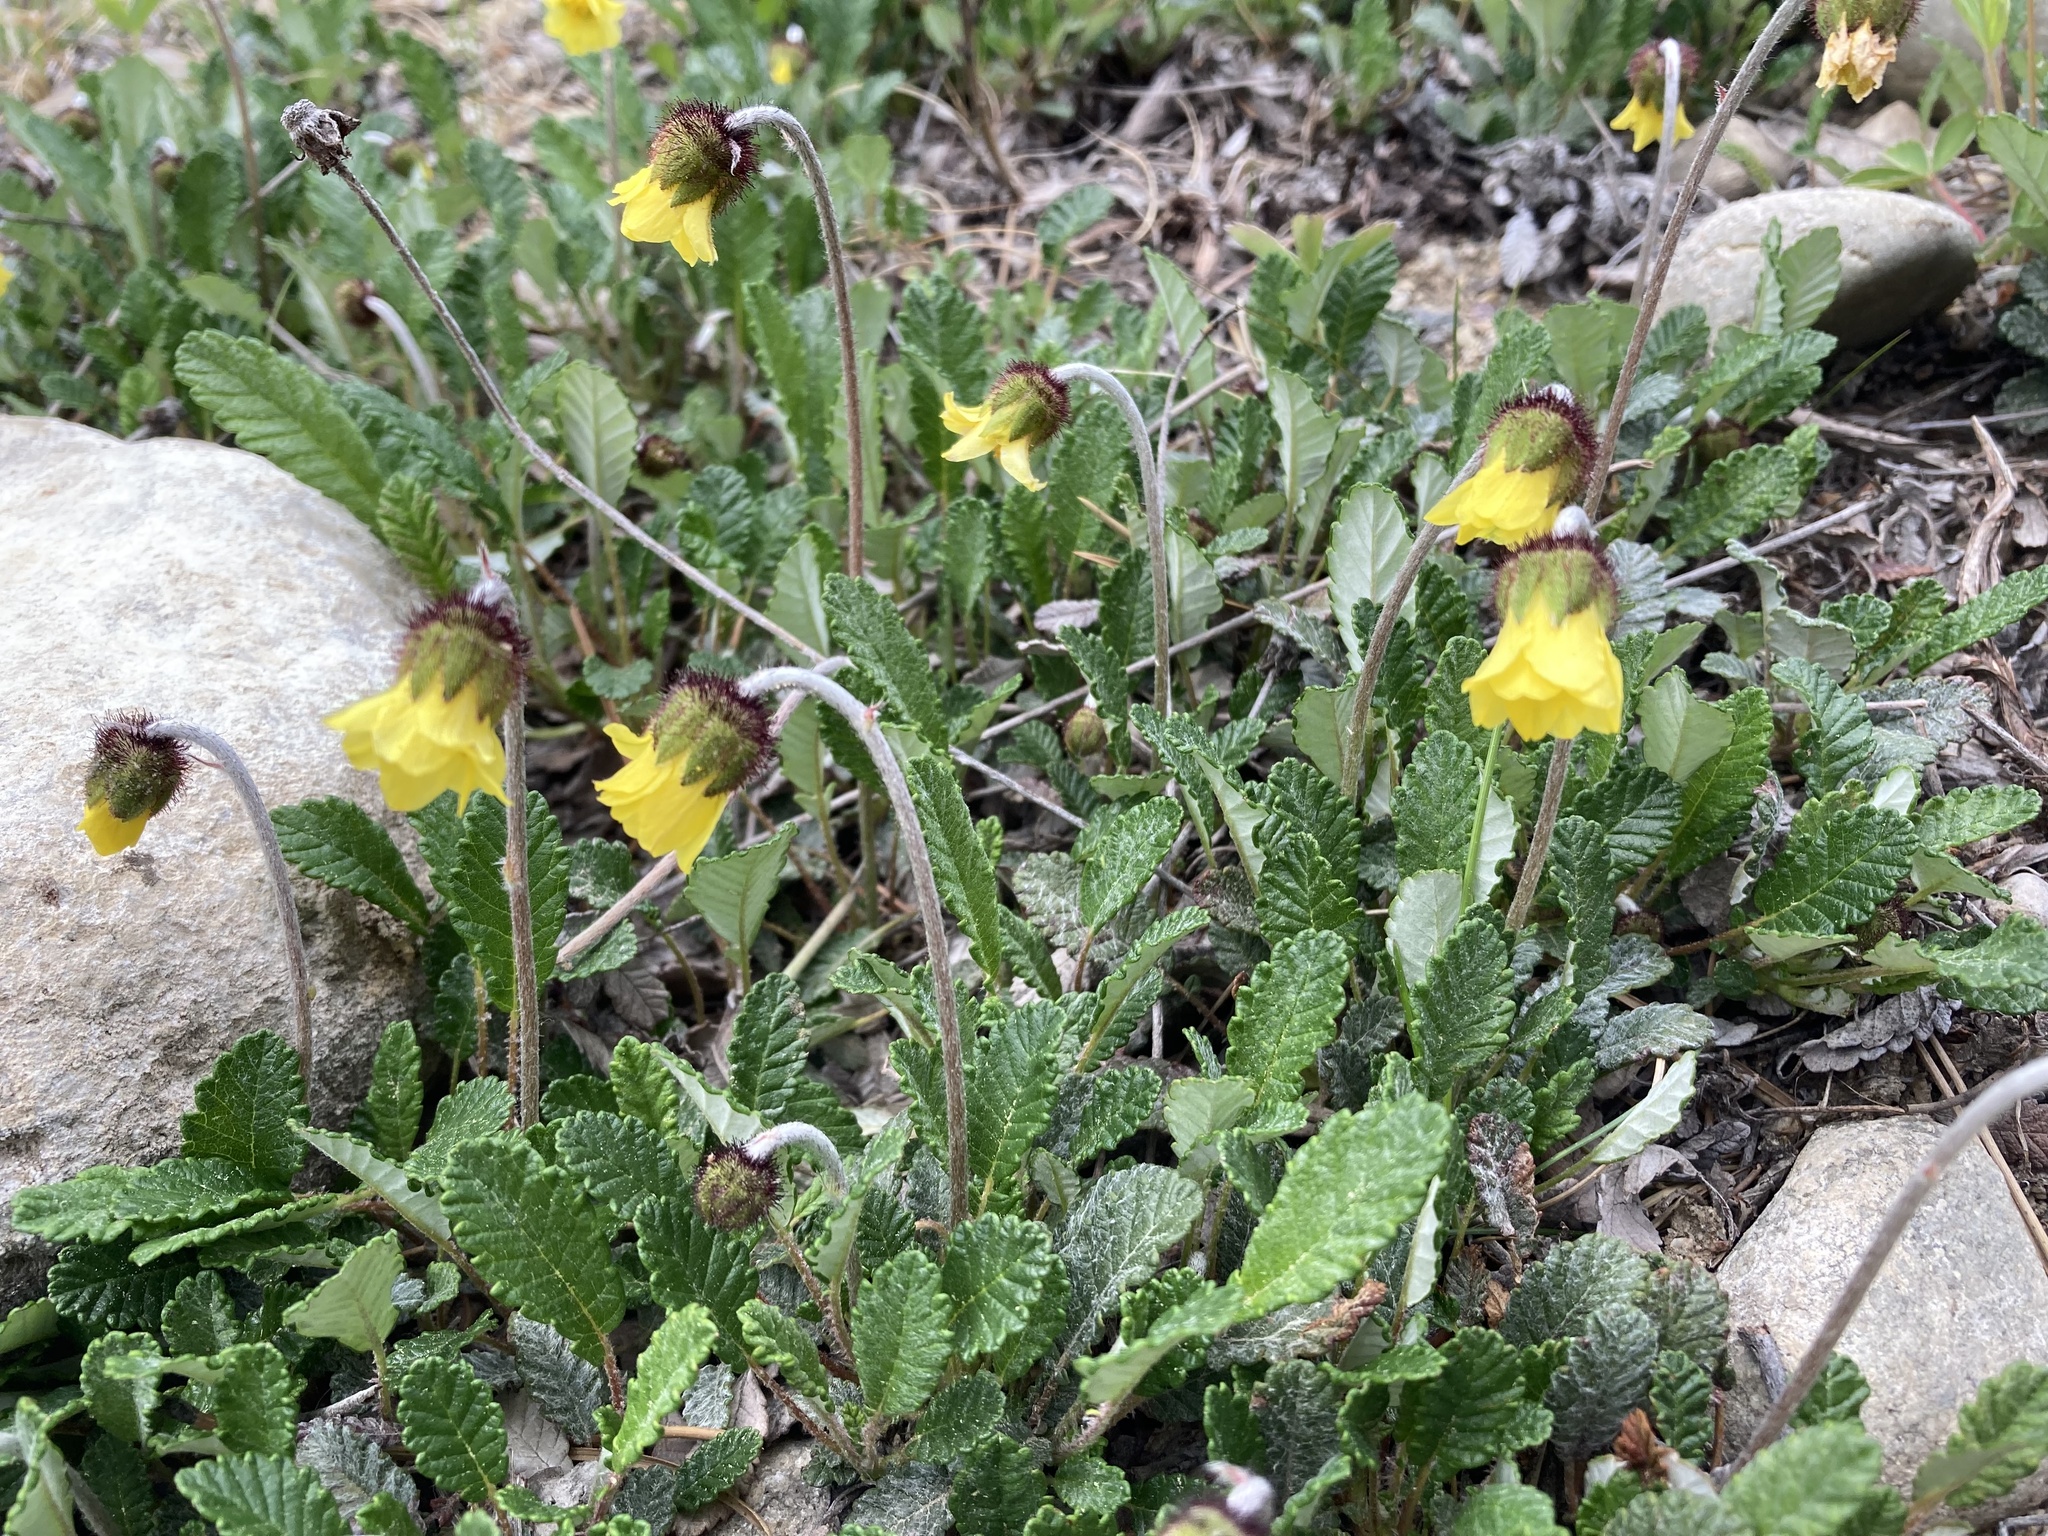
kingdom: Plantae
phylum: Tracheophyta
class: Magnoliopsida
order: Rosales
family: Rosaceae
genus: Dryas
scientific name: Dryas drummondii
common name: Drummond's dryad
